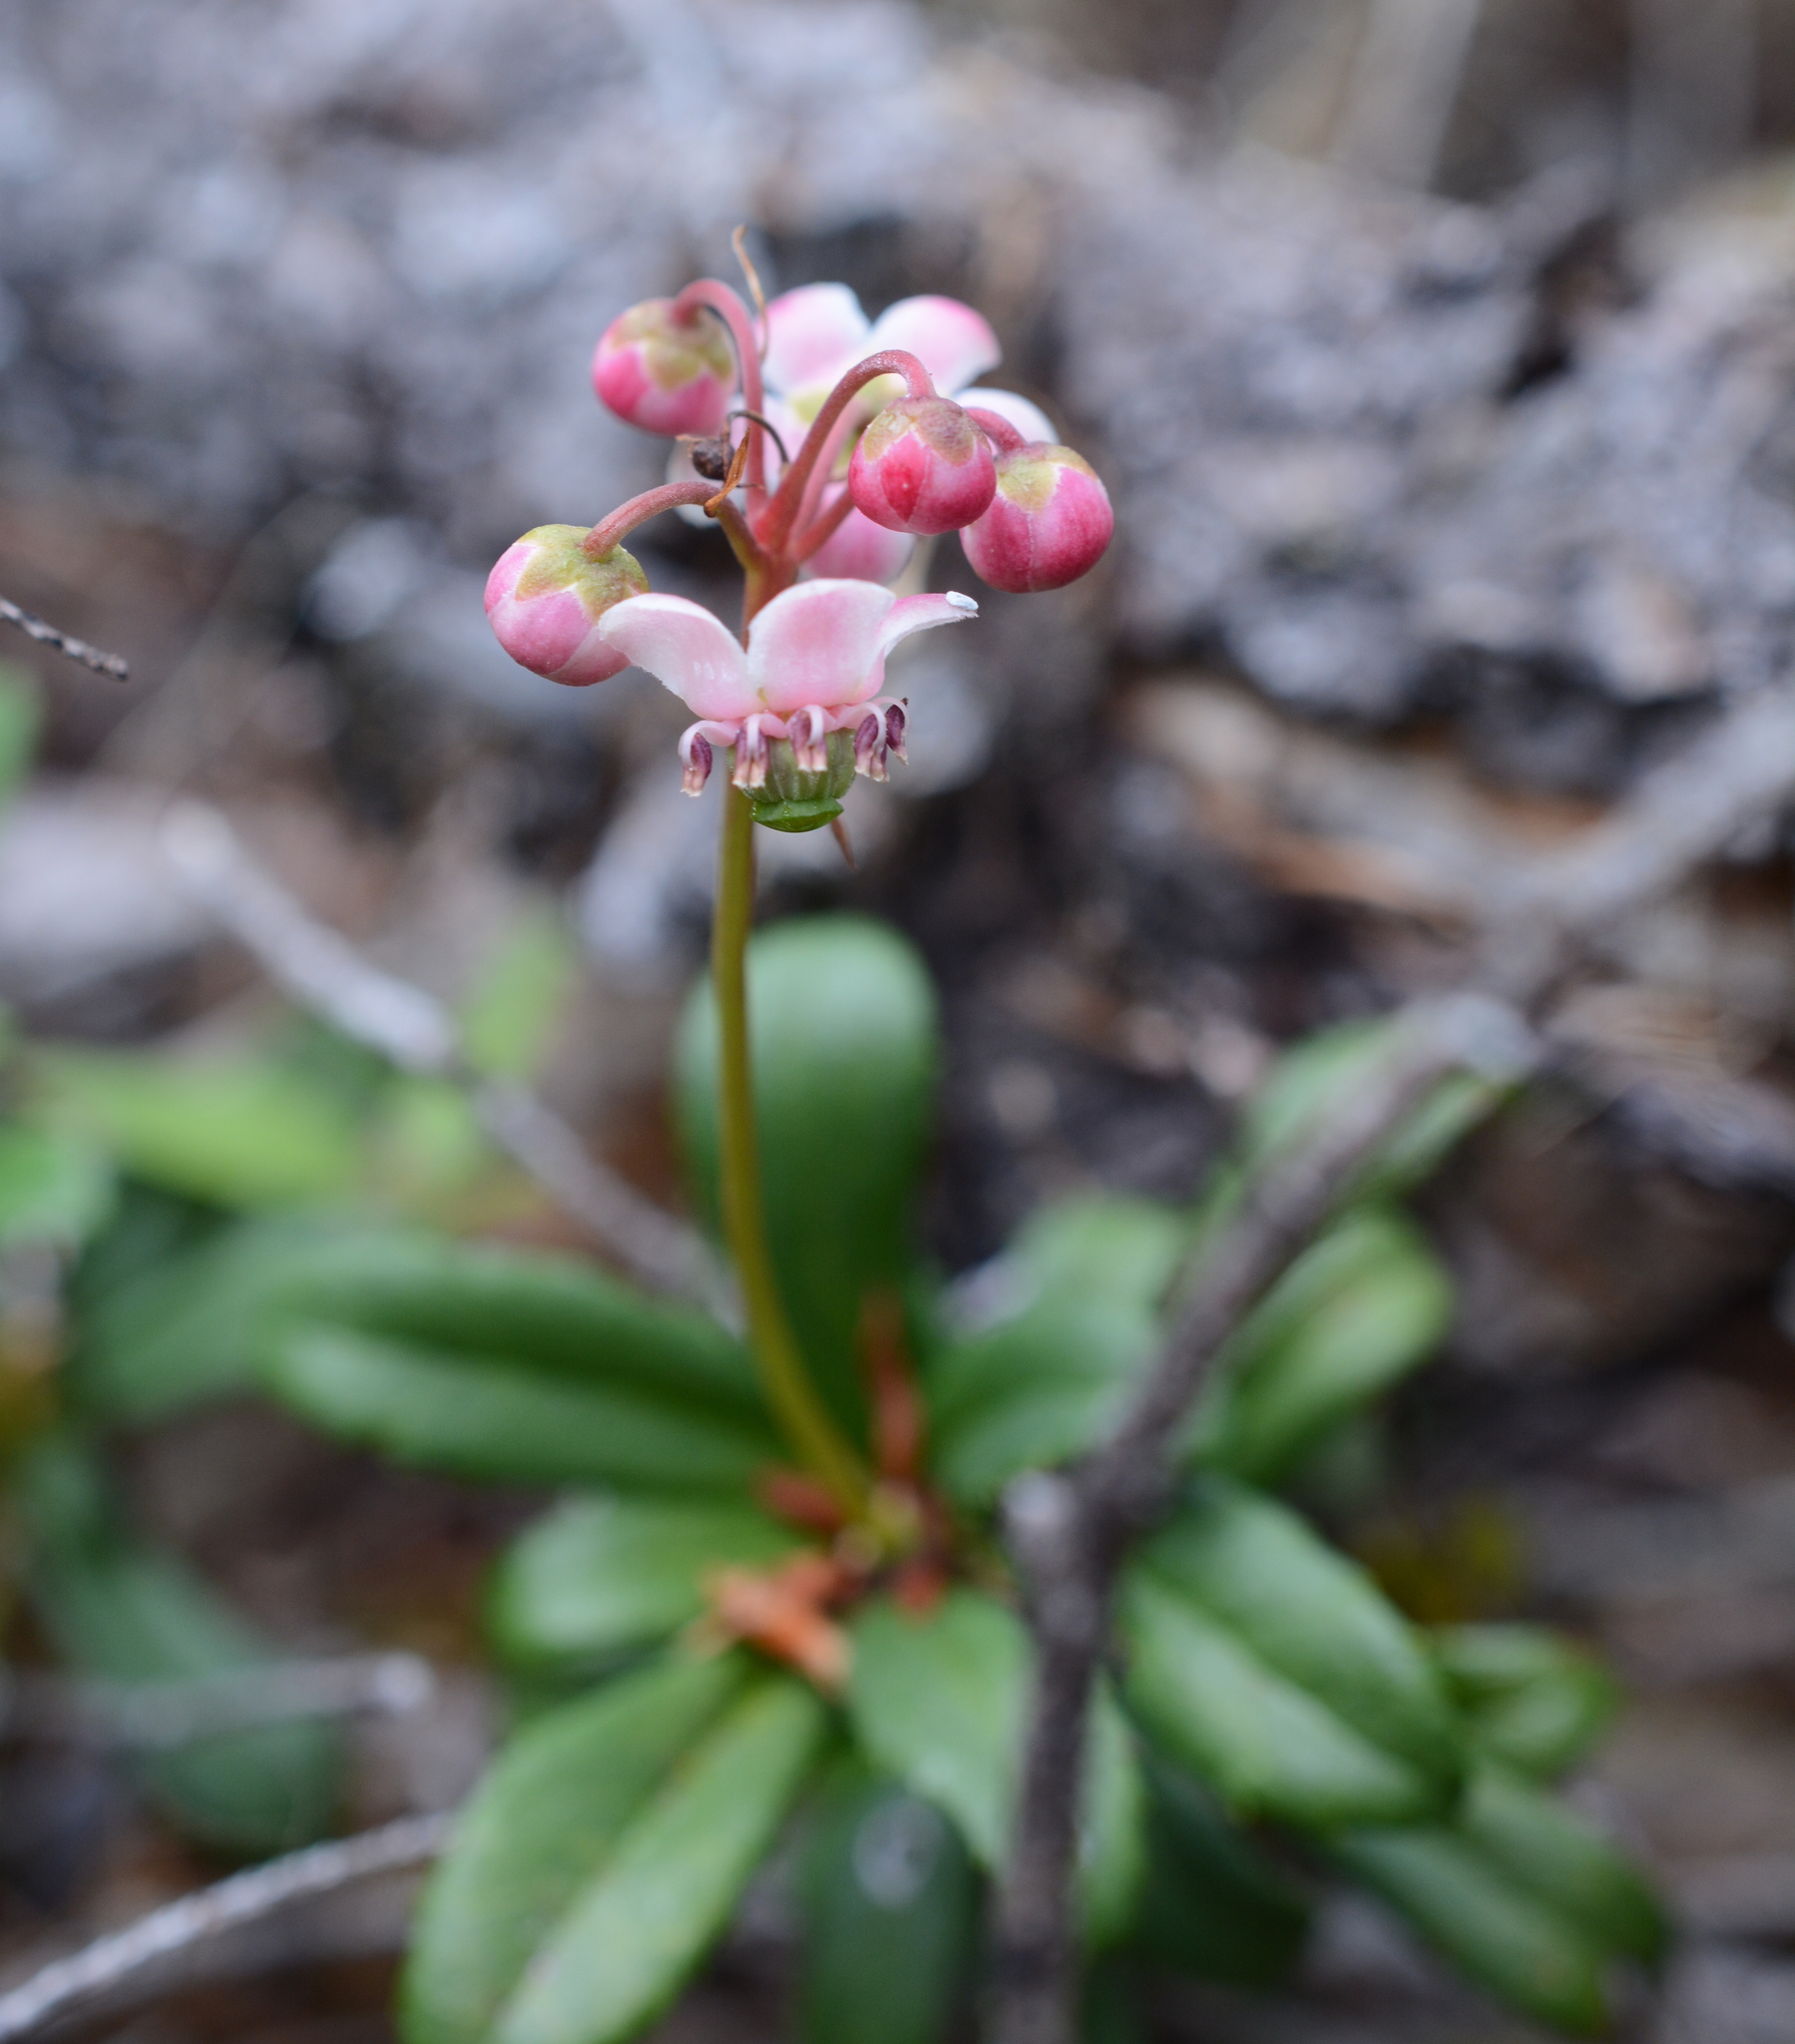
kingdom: Plantae
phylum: Tracheophyta
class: Magnoliopsida
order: Ericales
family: Ericaceae
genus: Chimaphila
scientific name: Chimaphila umbellata
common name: Pipsissewa
